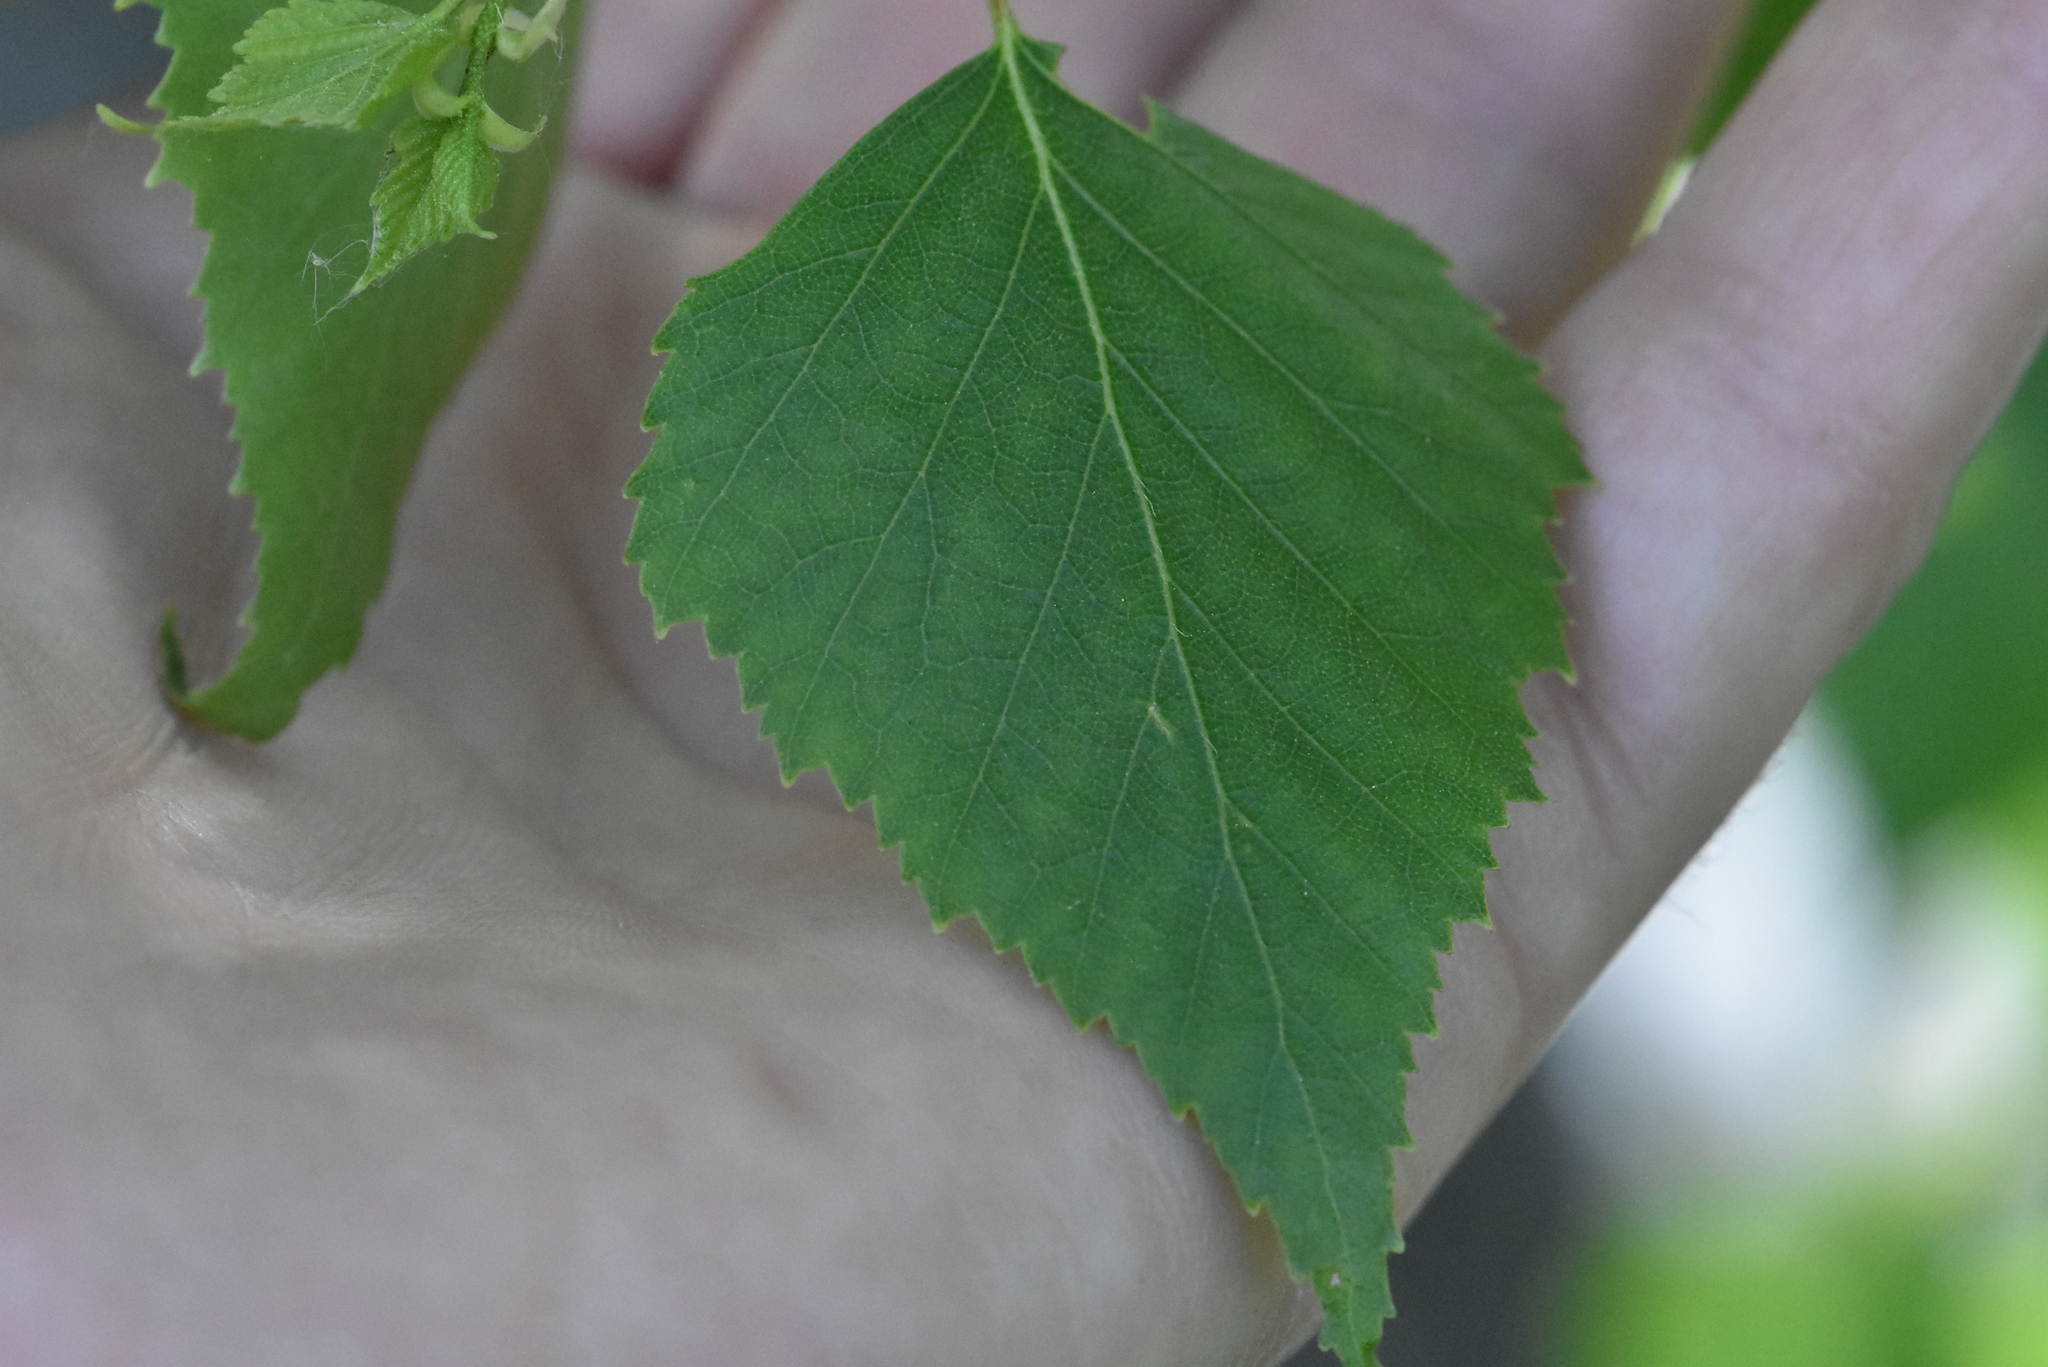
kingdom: Plantae
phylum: Tracheophyta
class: Magnoliopsida
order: Fagales
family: Betulaceae
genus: Betula
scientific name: Betula pendula
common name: Silver birch
